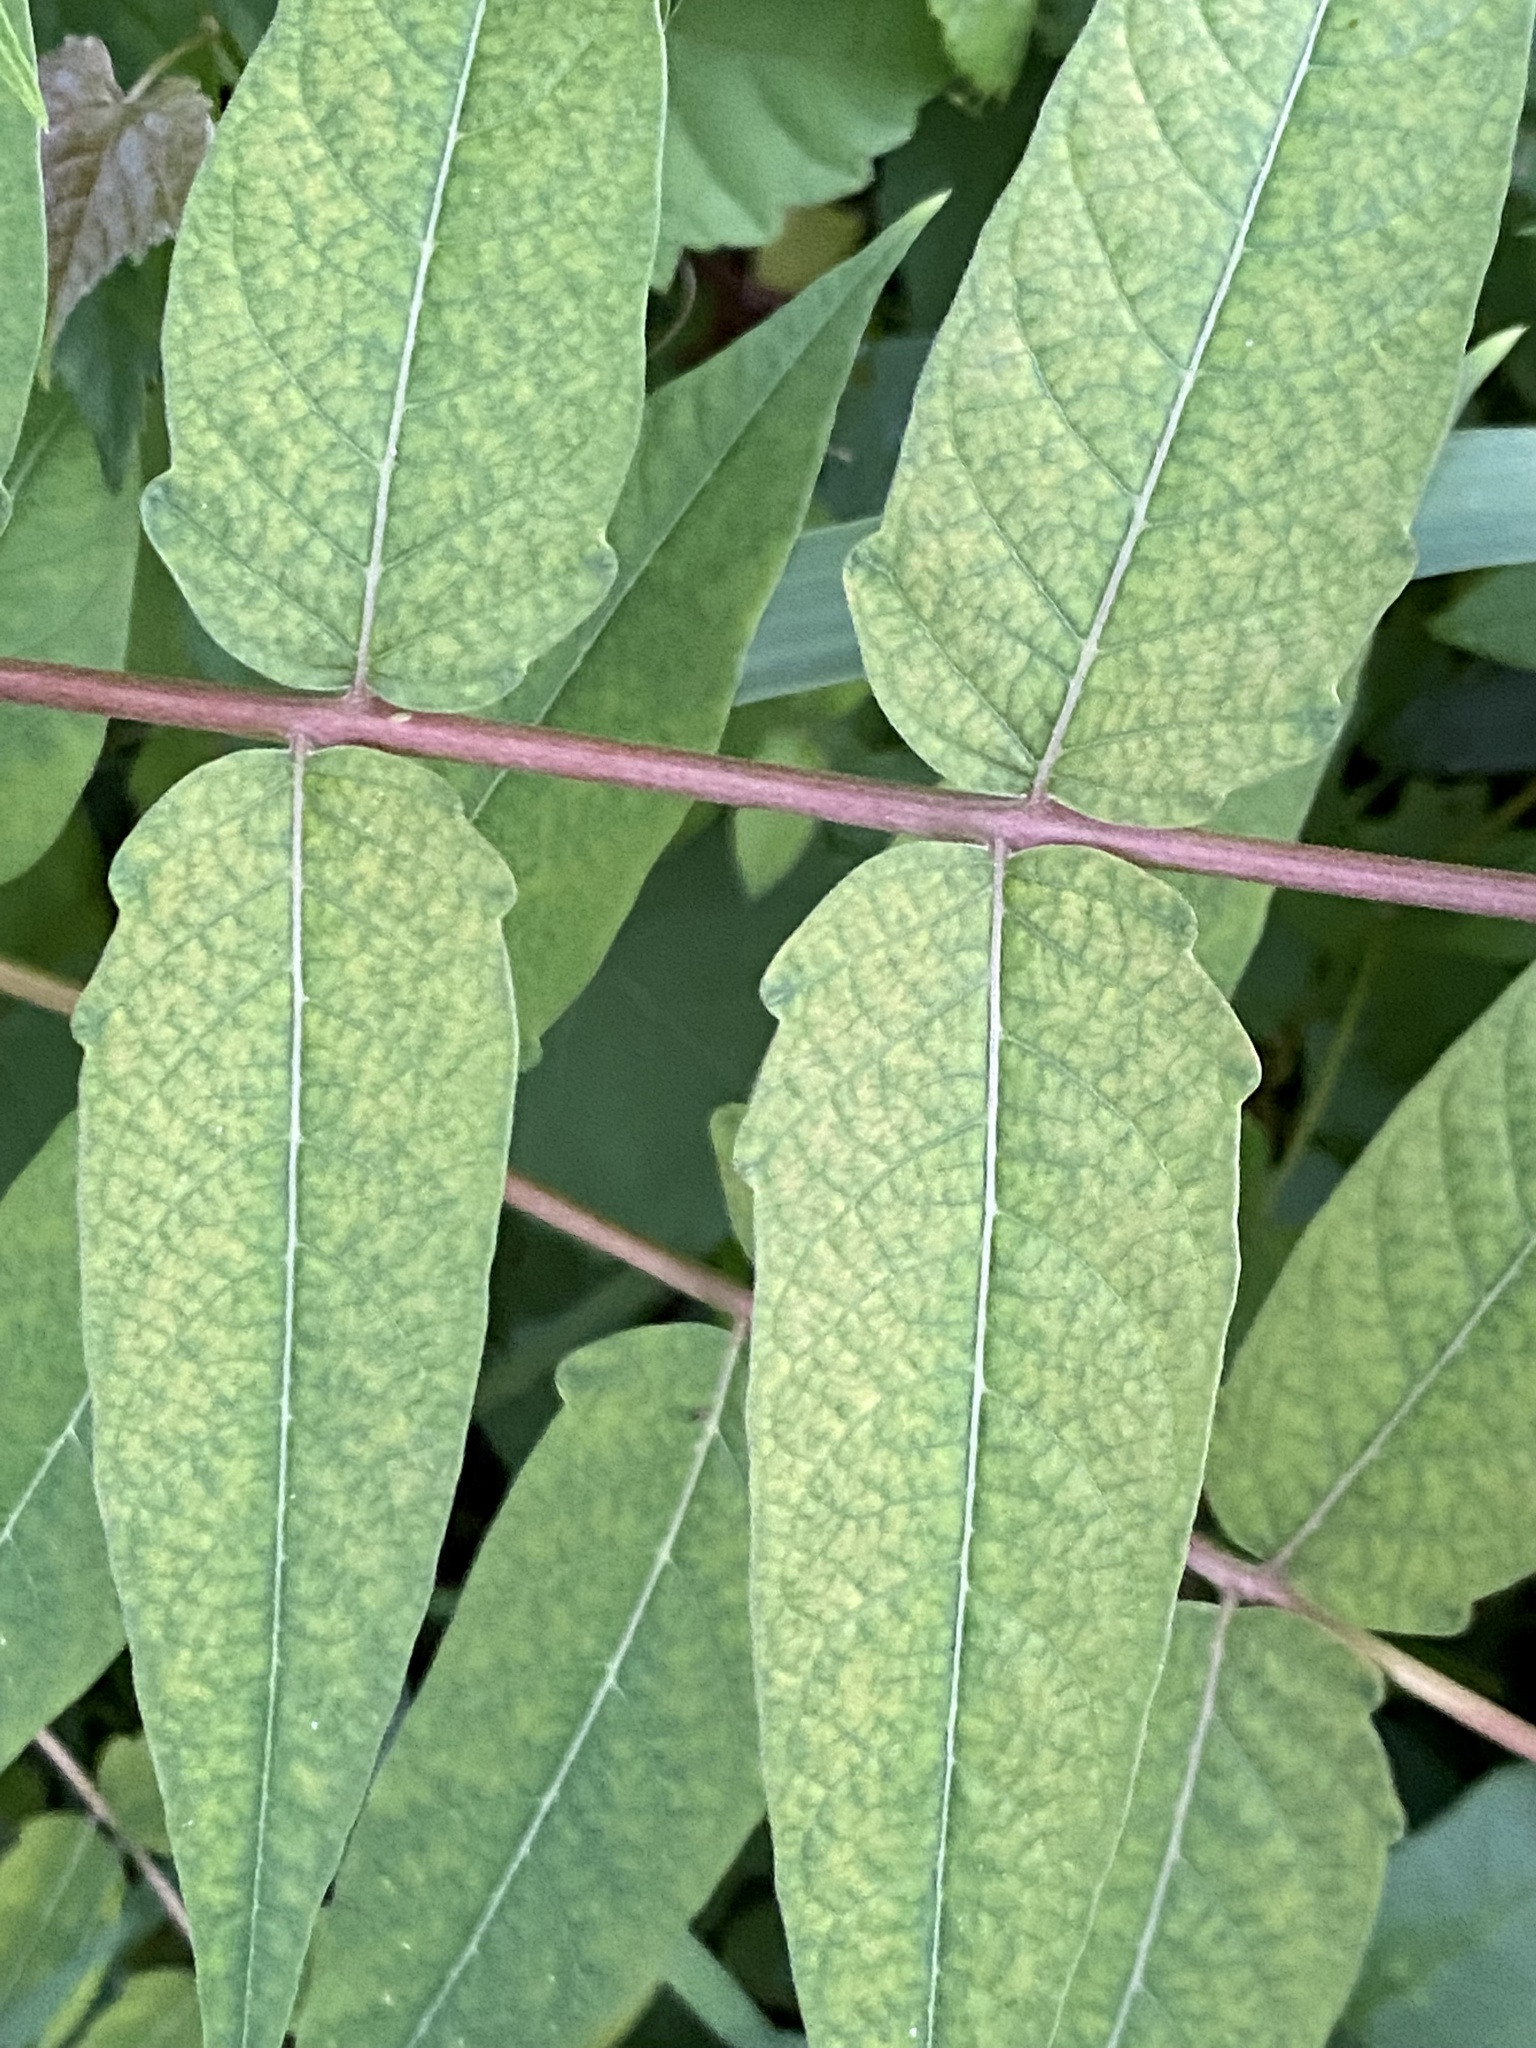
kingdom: Plantae
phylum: Tracheophyta
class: Magnoliopsida
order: Sapindales
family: Simaroubaceae
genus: Ailanthus
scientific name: Ailanthus altissima
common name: Tree-of-heaven
